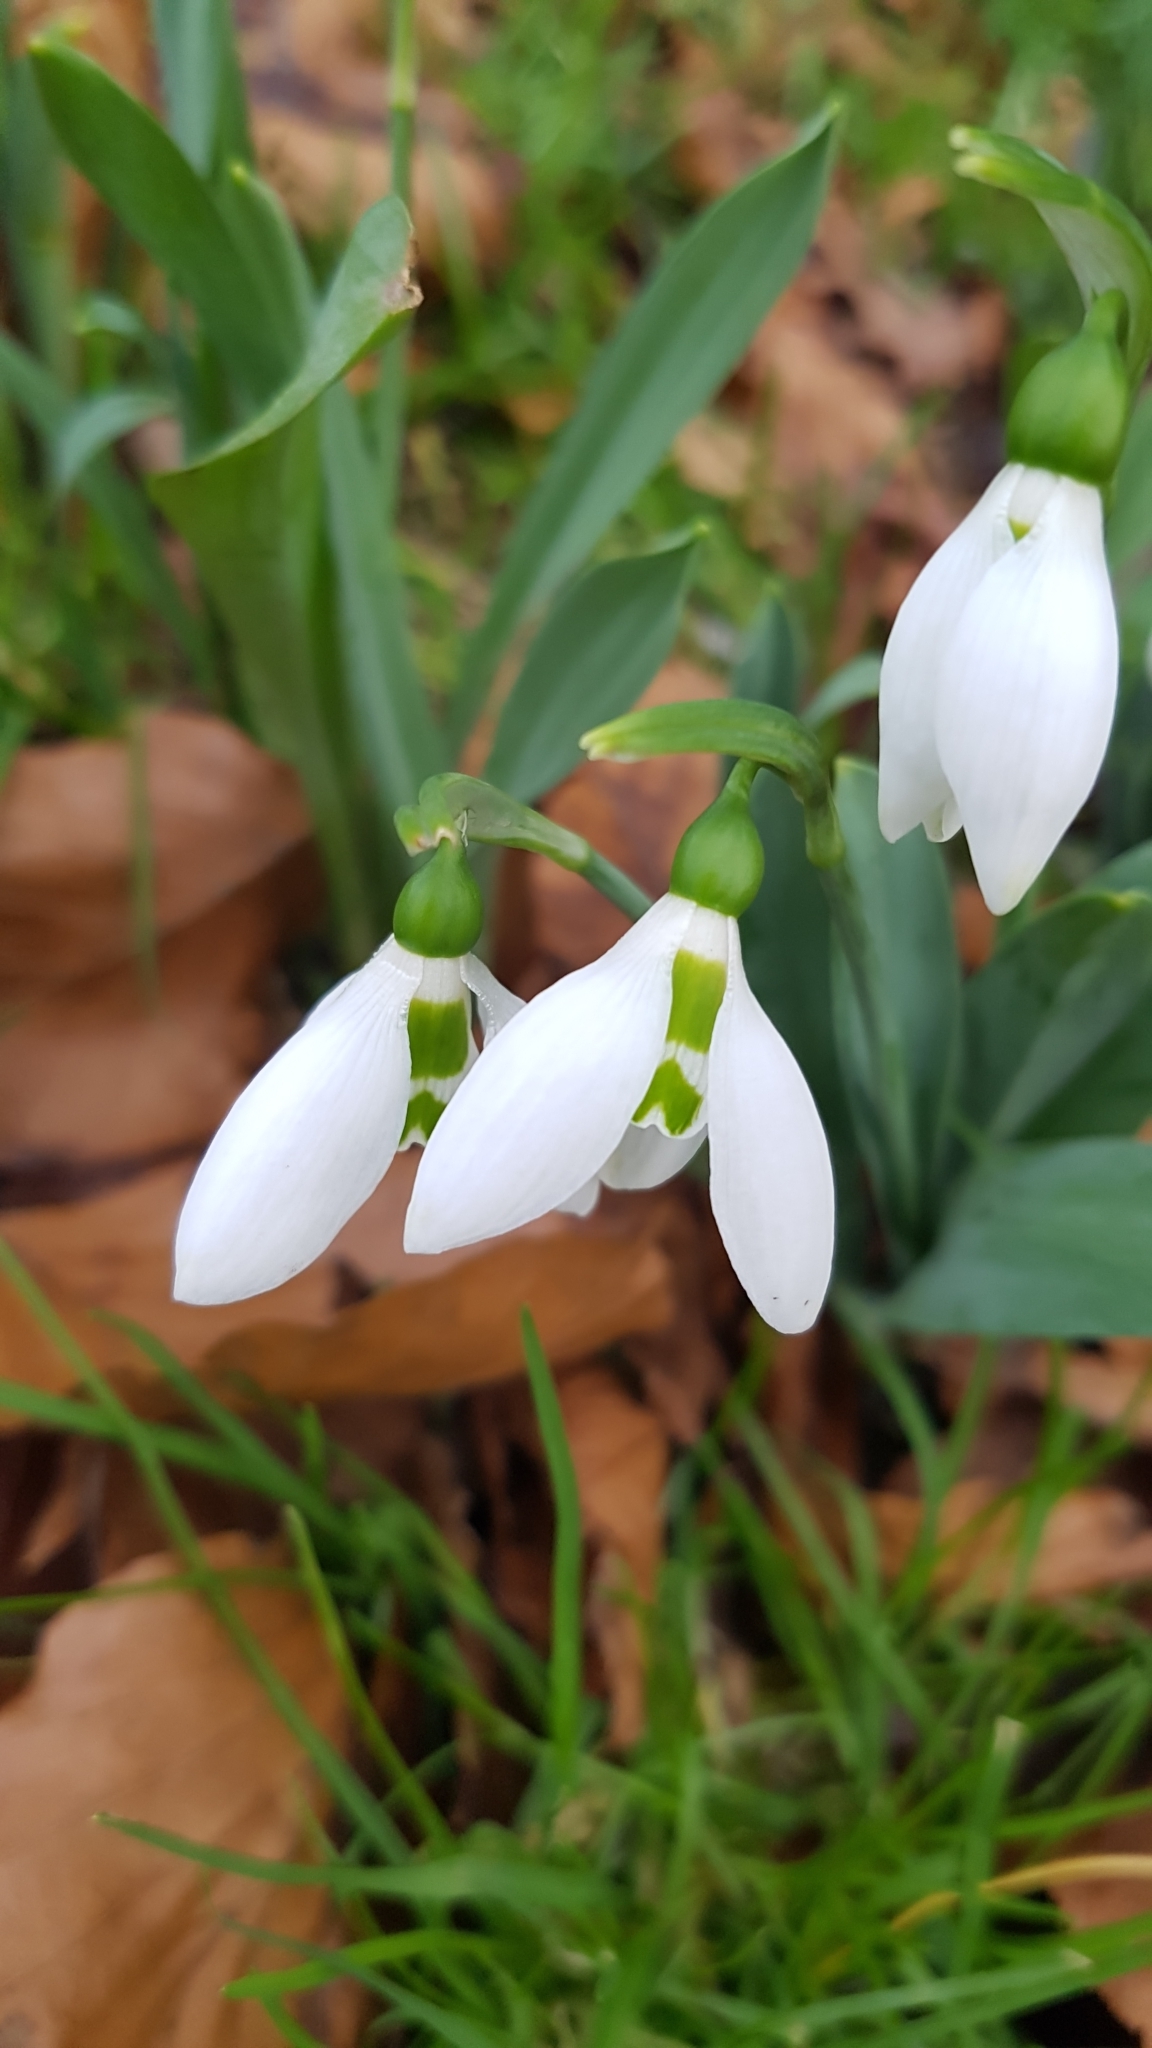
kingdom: Plantae
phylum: Tracheophyta
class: Liliopsida
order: Asparagales
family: Amaryllidaceae
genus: Galanthus
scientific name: Galanthus elwesii
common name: Greater snowdrop
